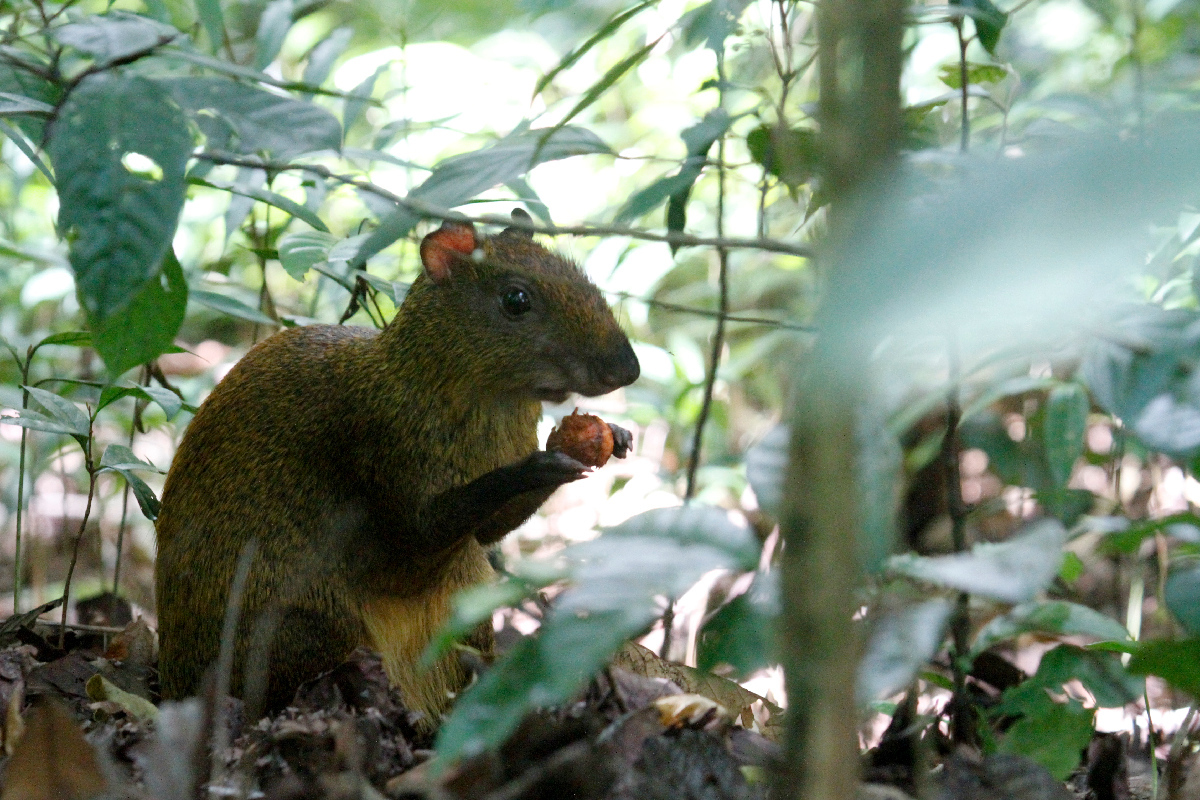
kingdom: Animalia
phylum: Chordata
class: Mammalia
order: Rodentia
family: Dasyproctidae
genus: Dasyprocta
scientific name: Dasyprocta punctata
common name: Central american agouti
